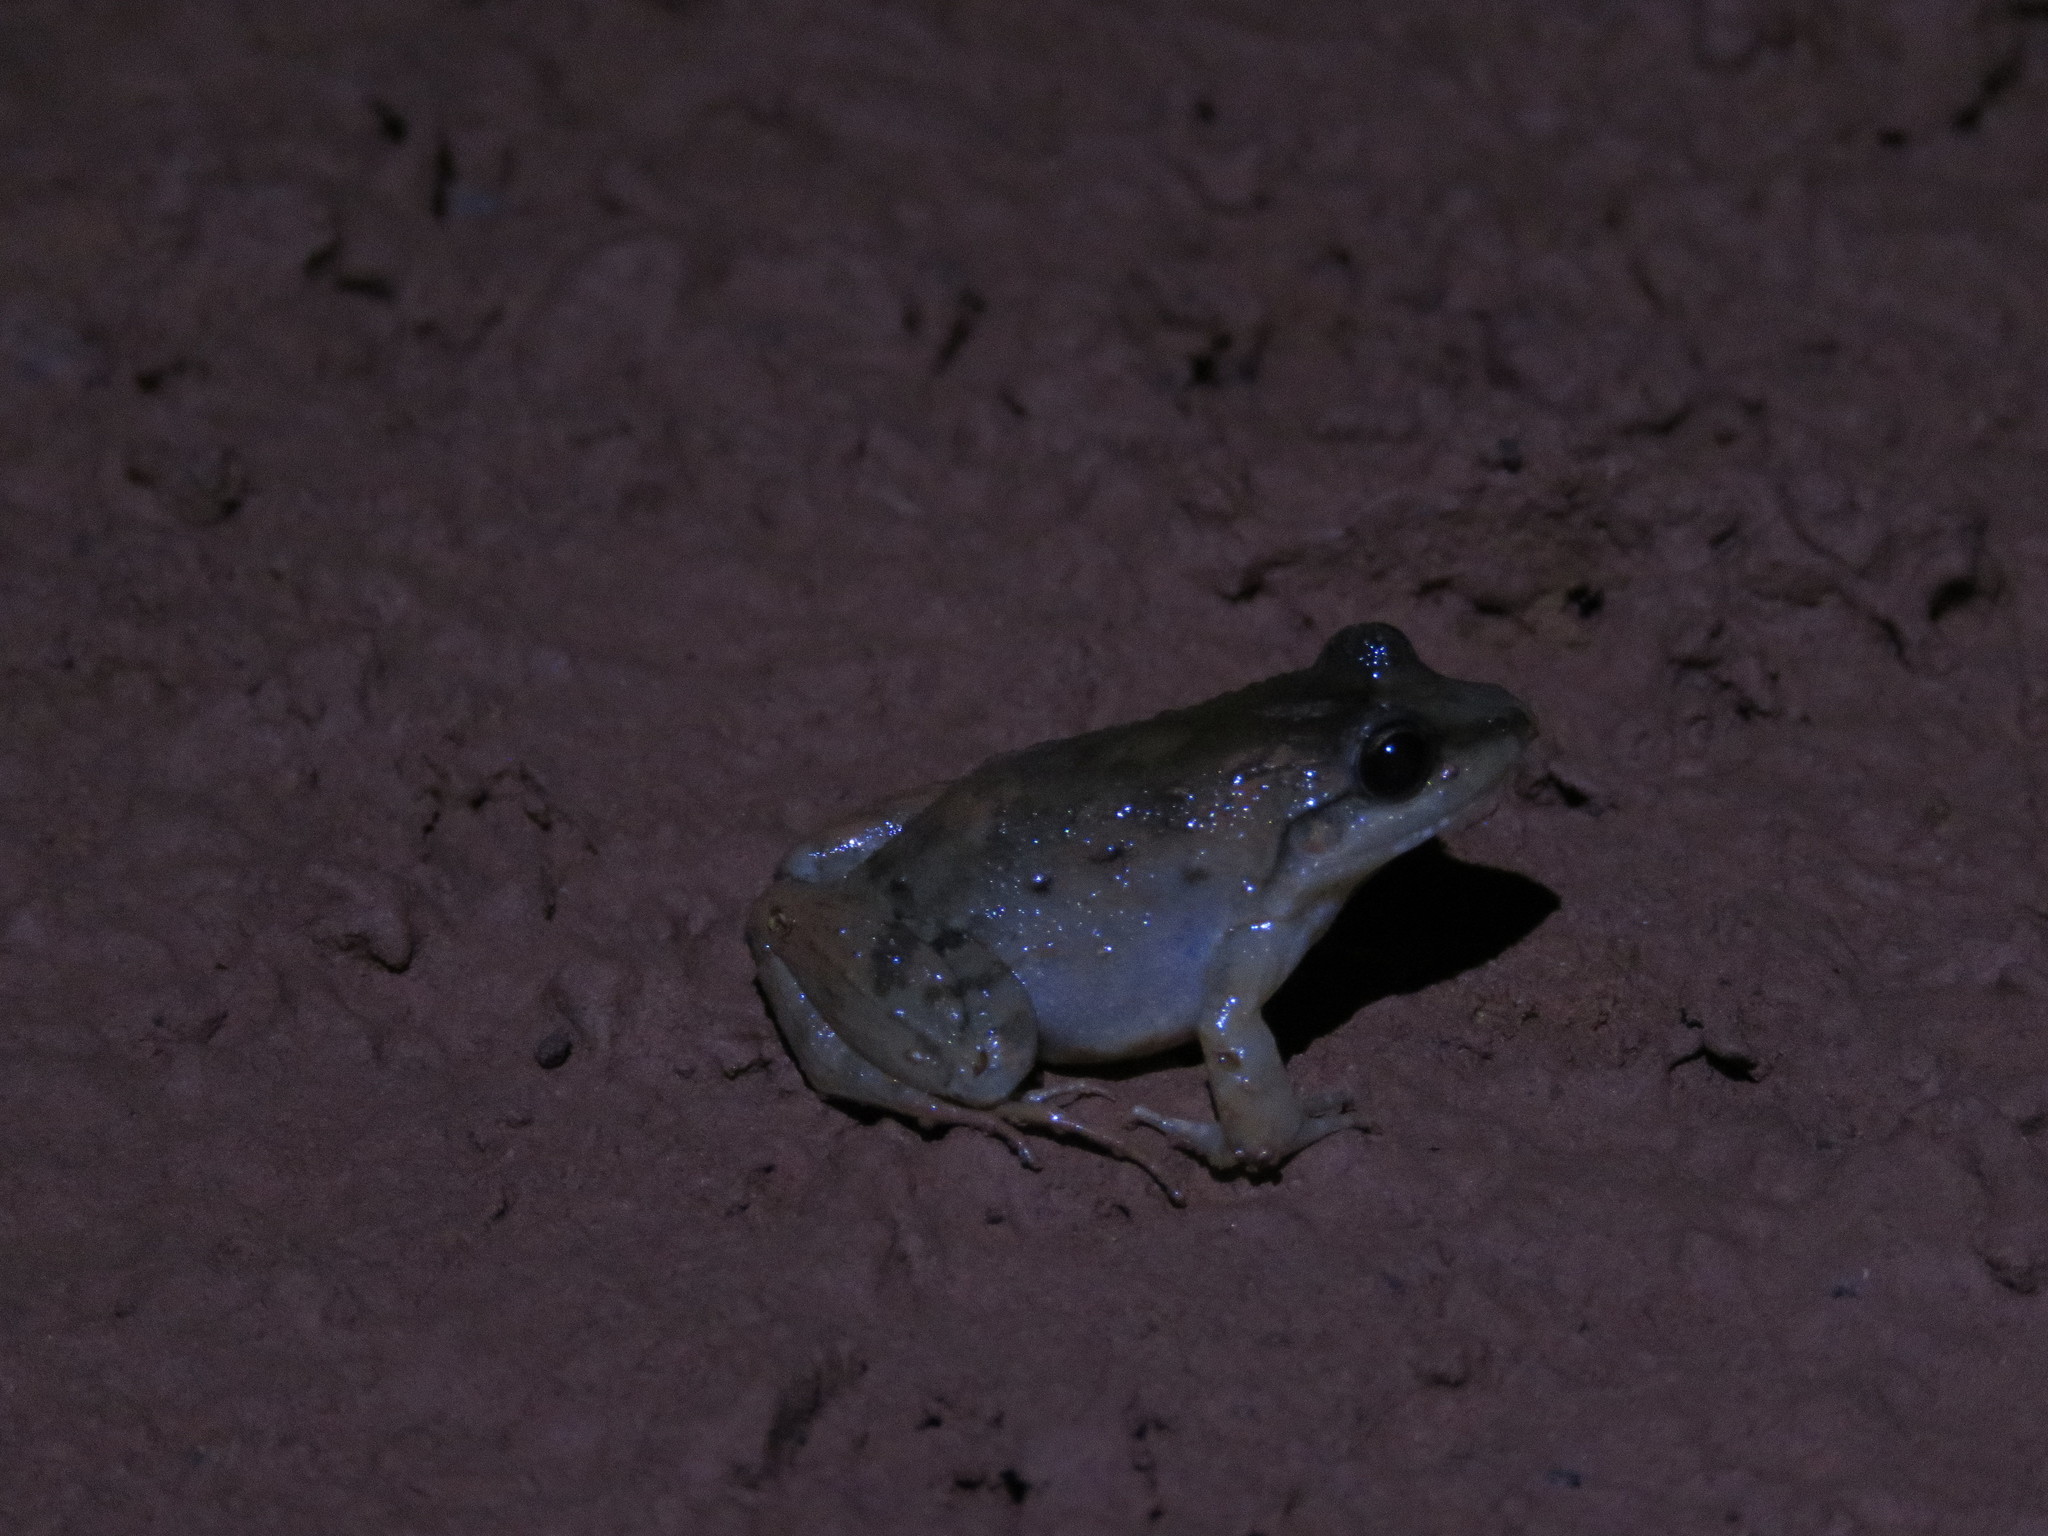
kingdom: Animalia
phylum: Chordata
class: Amphibia
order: Anura
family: Leptodactylidae
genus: Leptodactylus
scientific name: Leptodactylus petersii
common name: Peters' thin-toed frog
